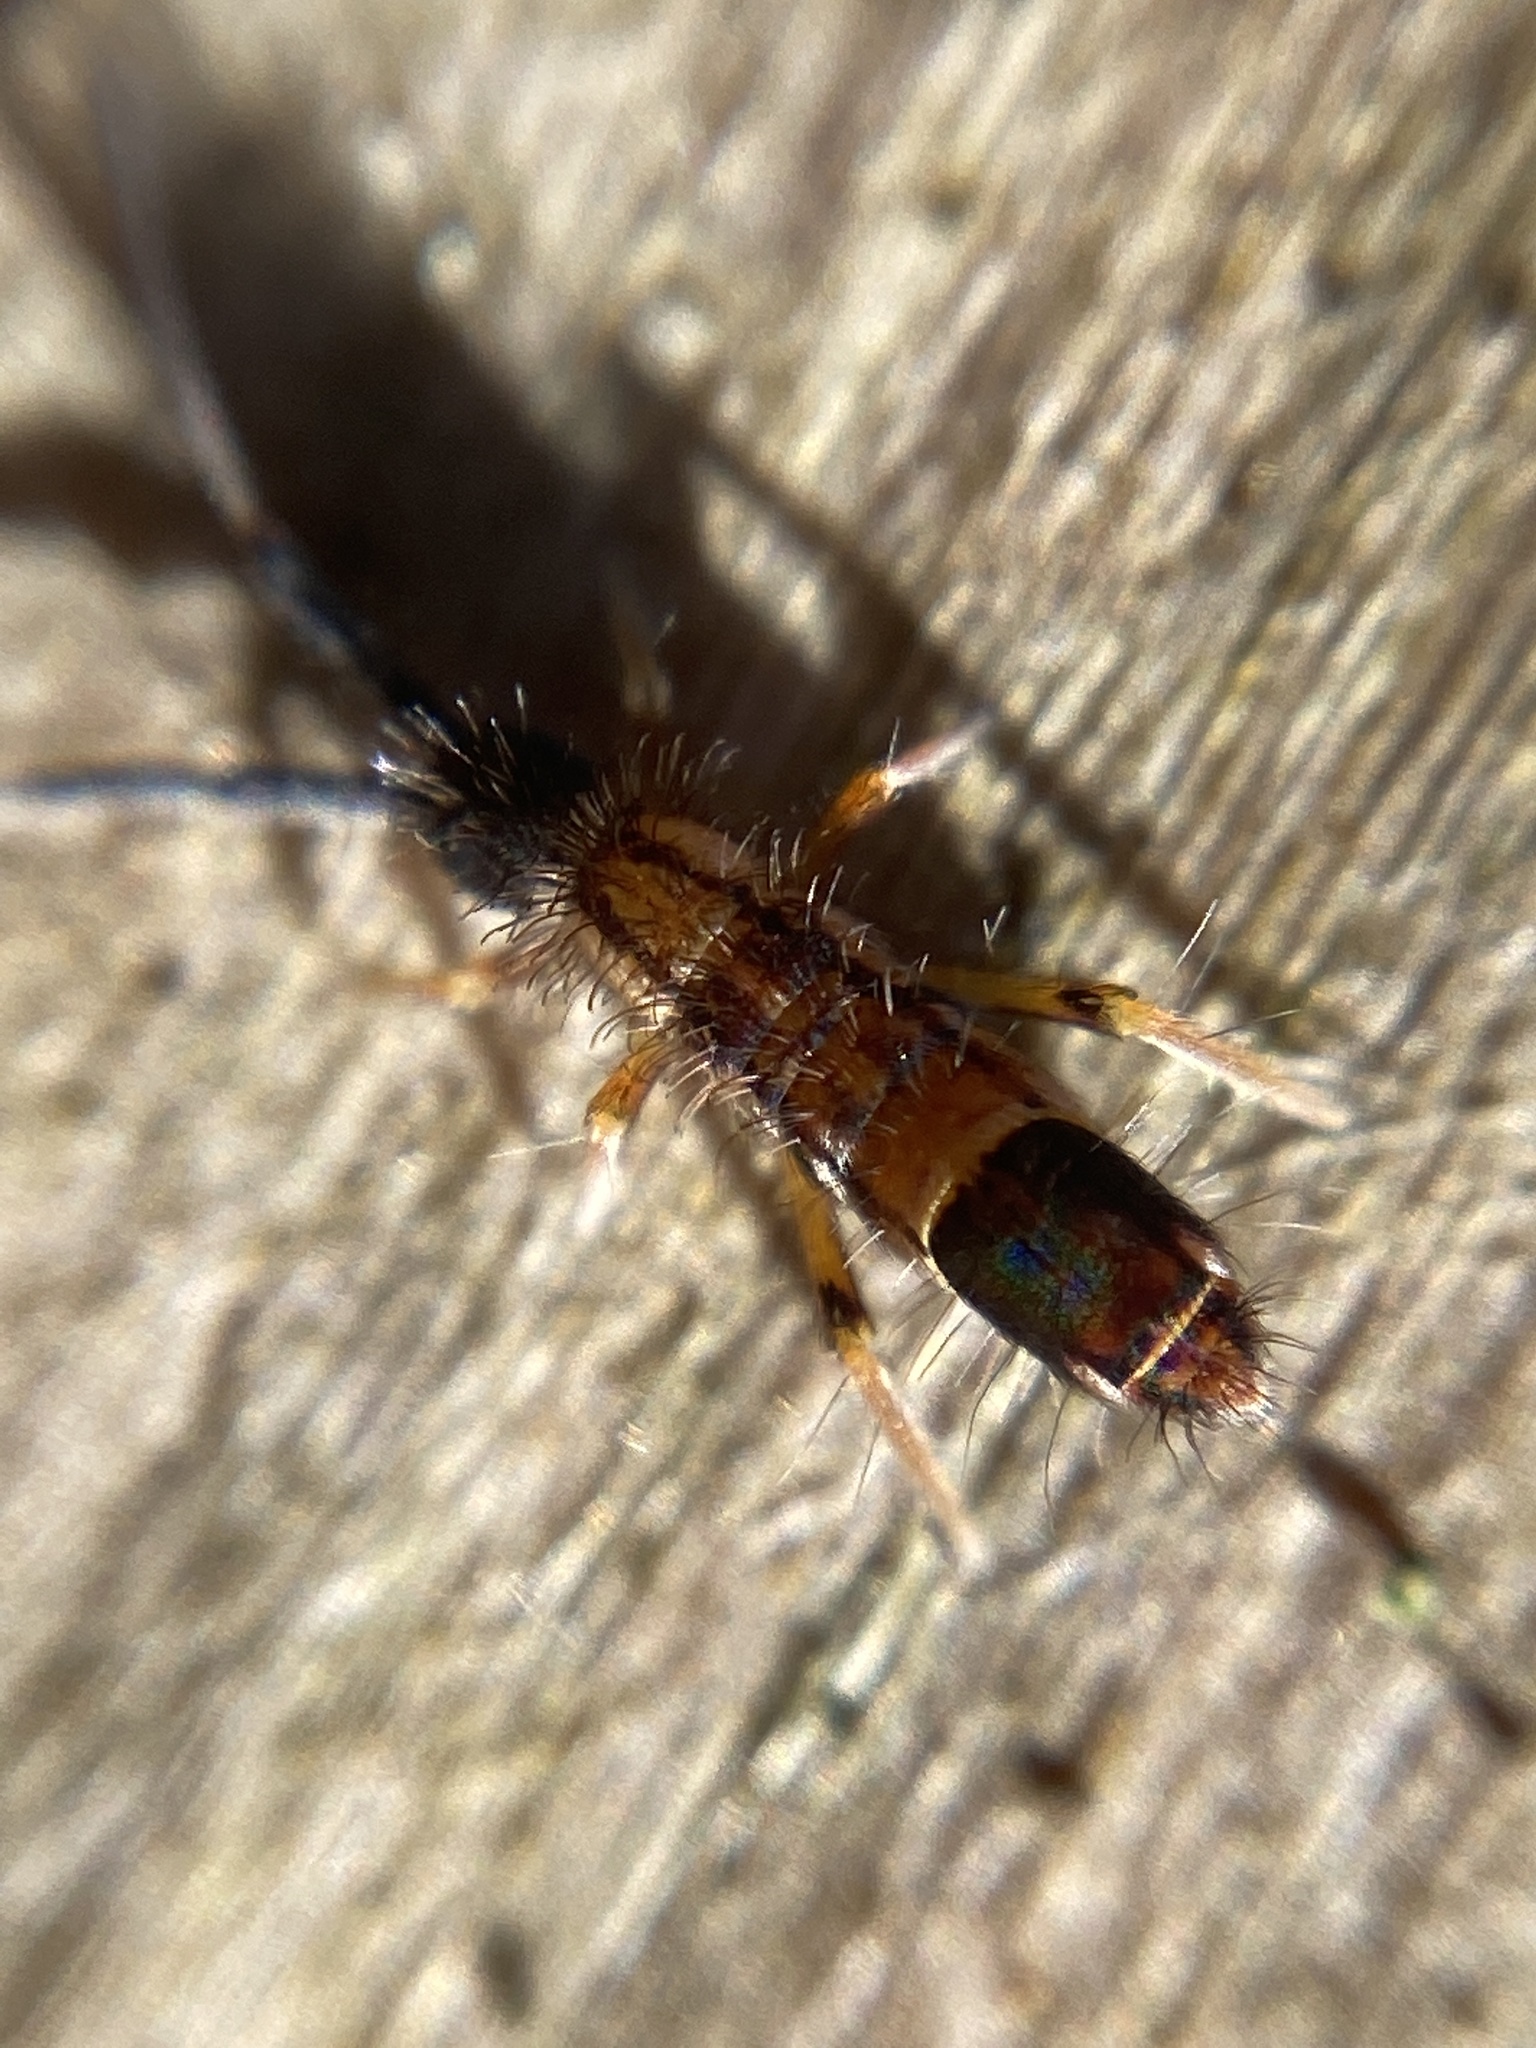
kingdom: Animalia
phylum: Arthropoda
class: Collembola
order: Entomobryomorpha
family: Entomobryidae
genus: Entomobrya
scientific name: Entomobrya nivalis
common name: Cosmopolitan springtail
